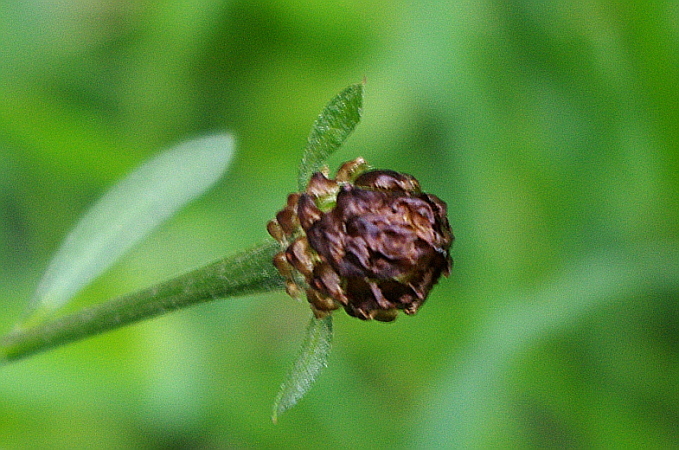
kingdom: Plantae
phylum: Tracheophyta
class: Magnoliopsida
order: Asterales
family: Asteraceae
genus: Centaurea
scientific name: Centaurea jacea
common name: Brown knapweed
